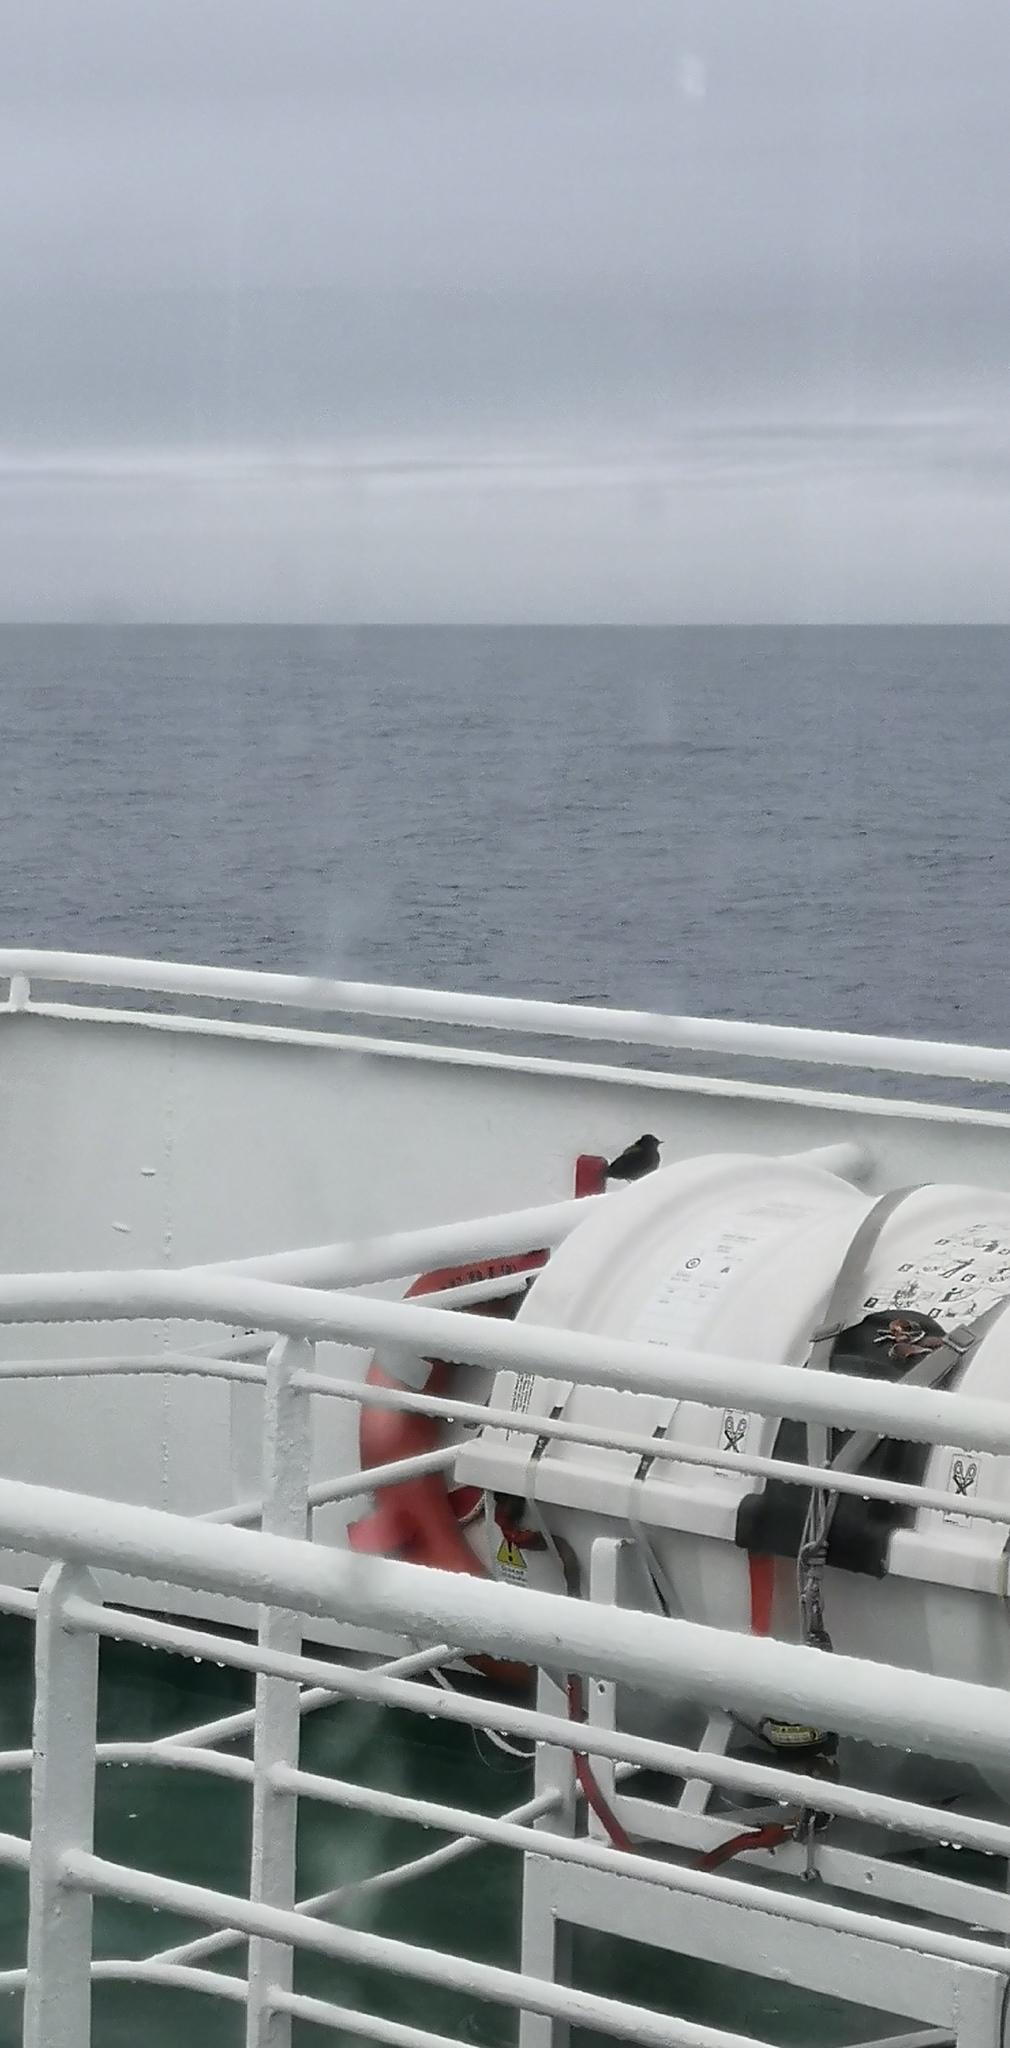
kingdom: Animalia
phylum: Chordata
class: Aves
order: Passeriformes
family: Tyrannidae
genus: Lessonia
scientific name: Lessonia rufa
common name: Austral negrito
